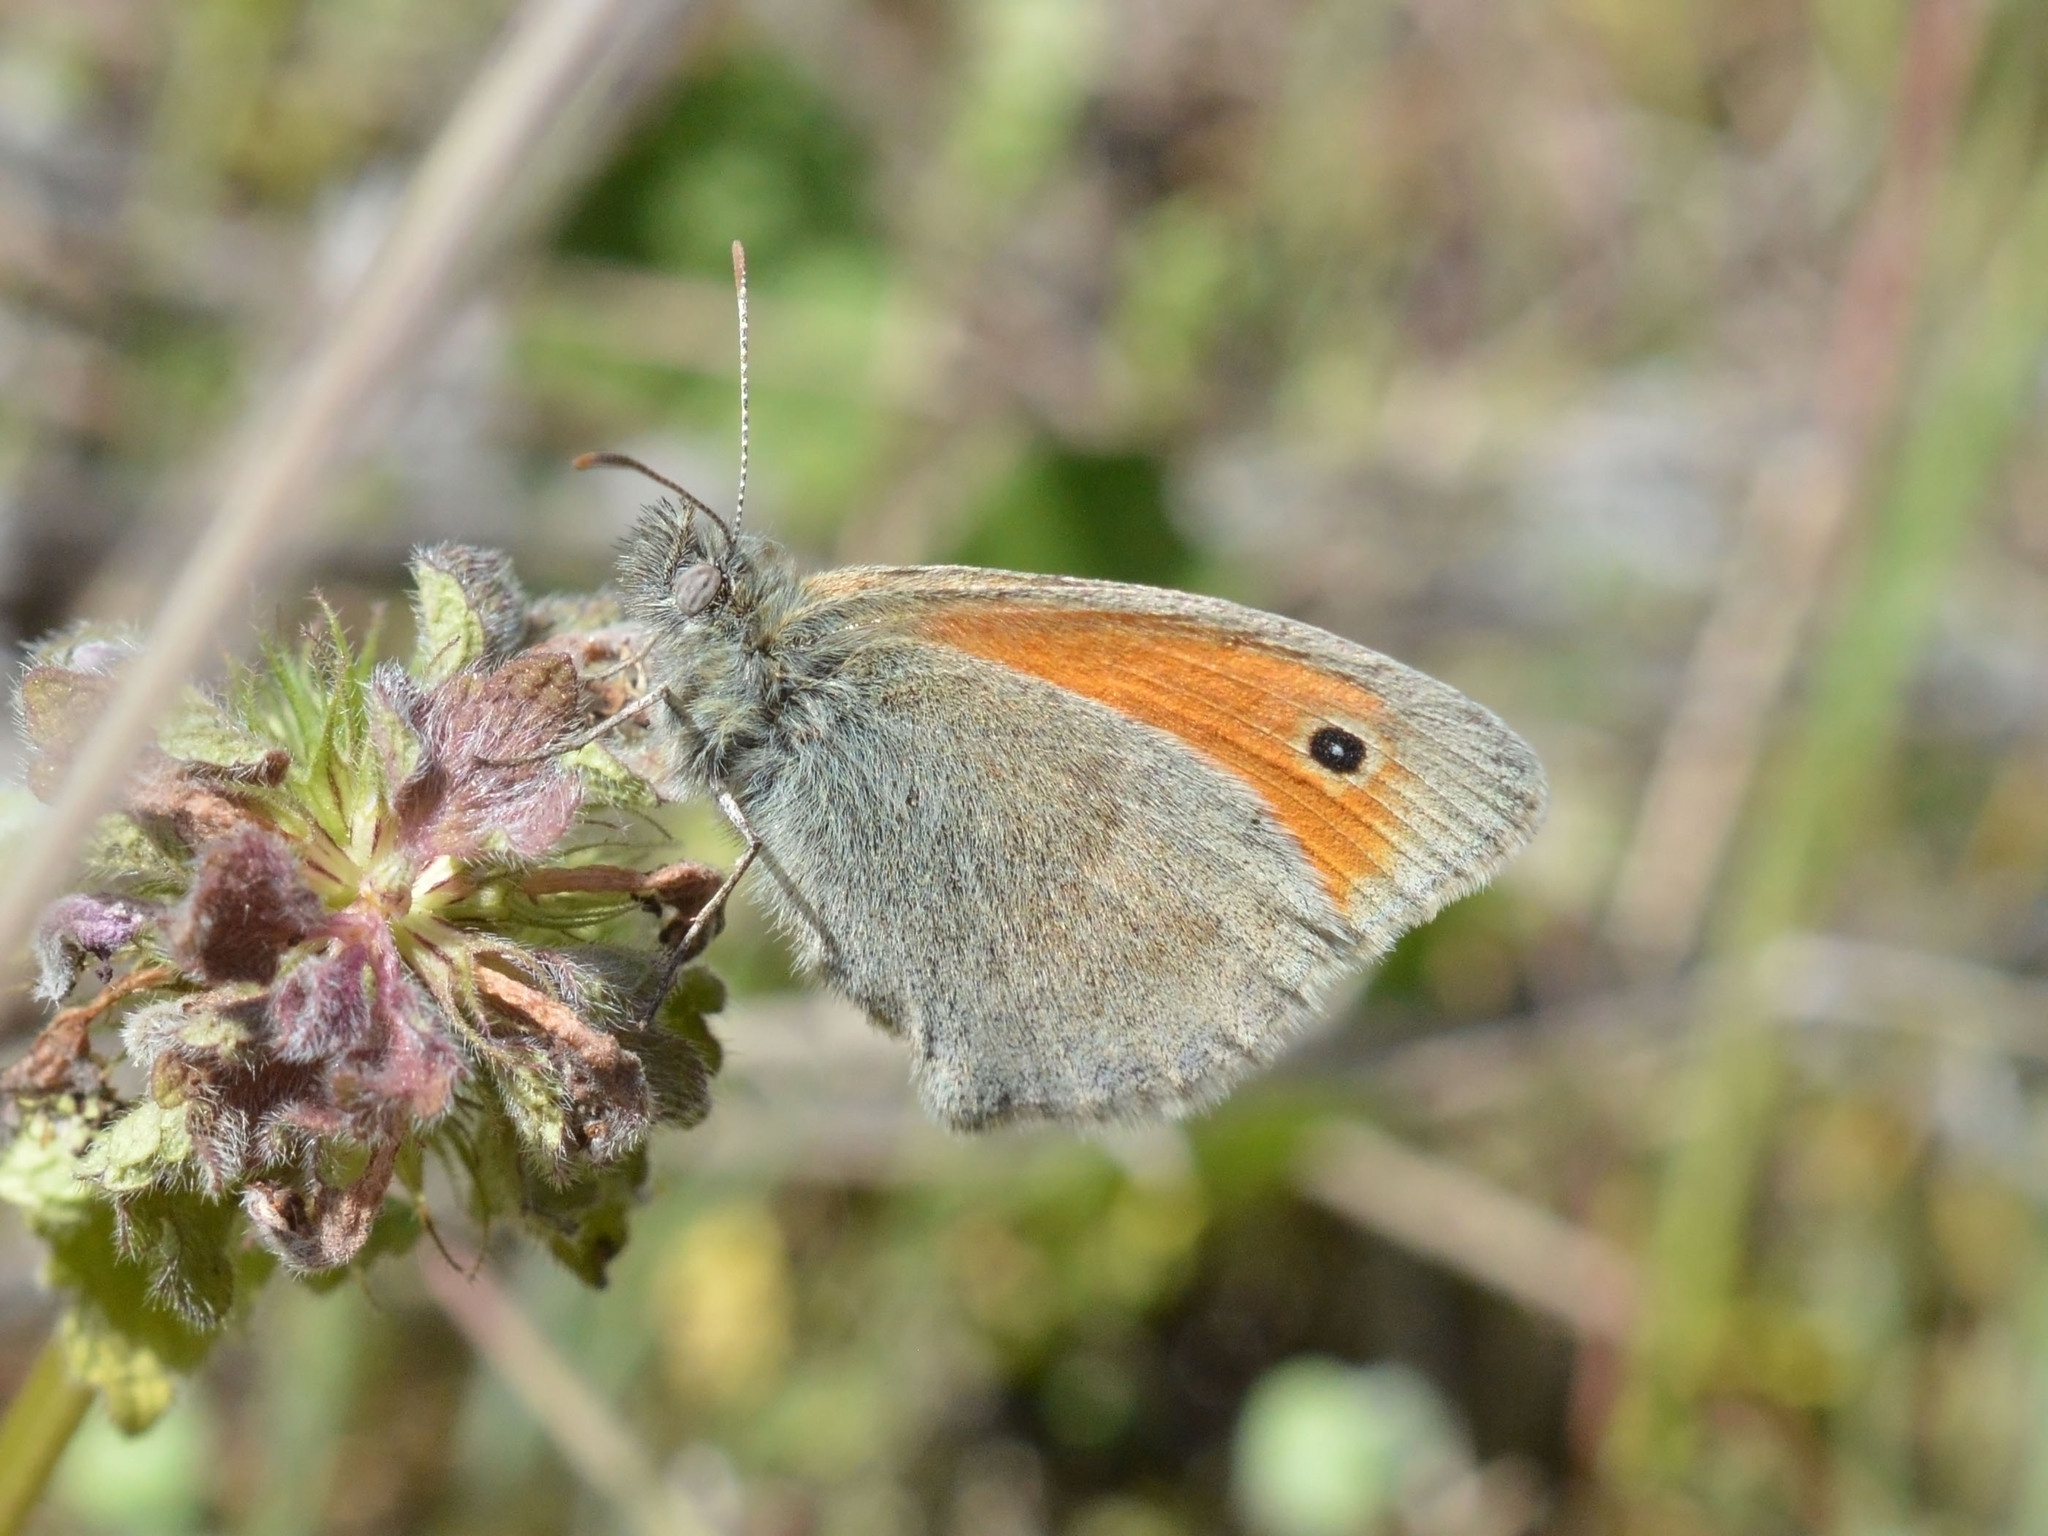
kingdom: Animalia
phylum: Arthropoda
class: Insecta
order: Lepidoptera
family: Nymphalidae
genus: Coenonympha
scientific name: Coenonympha pamphilus
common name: Small heath
